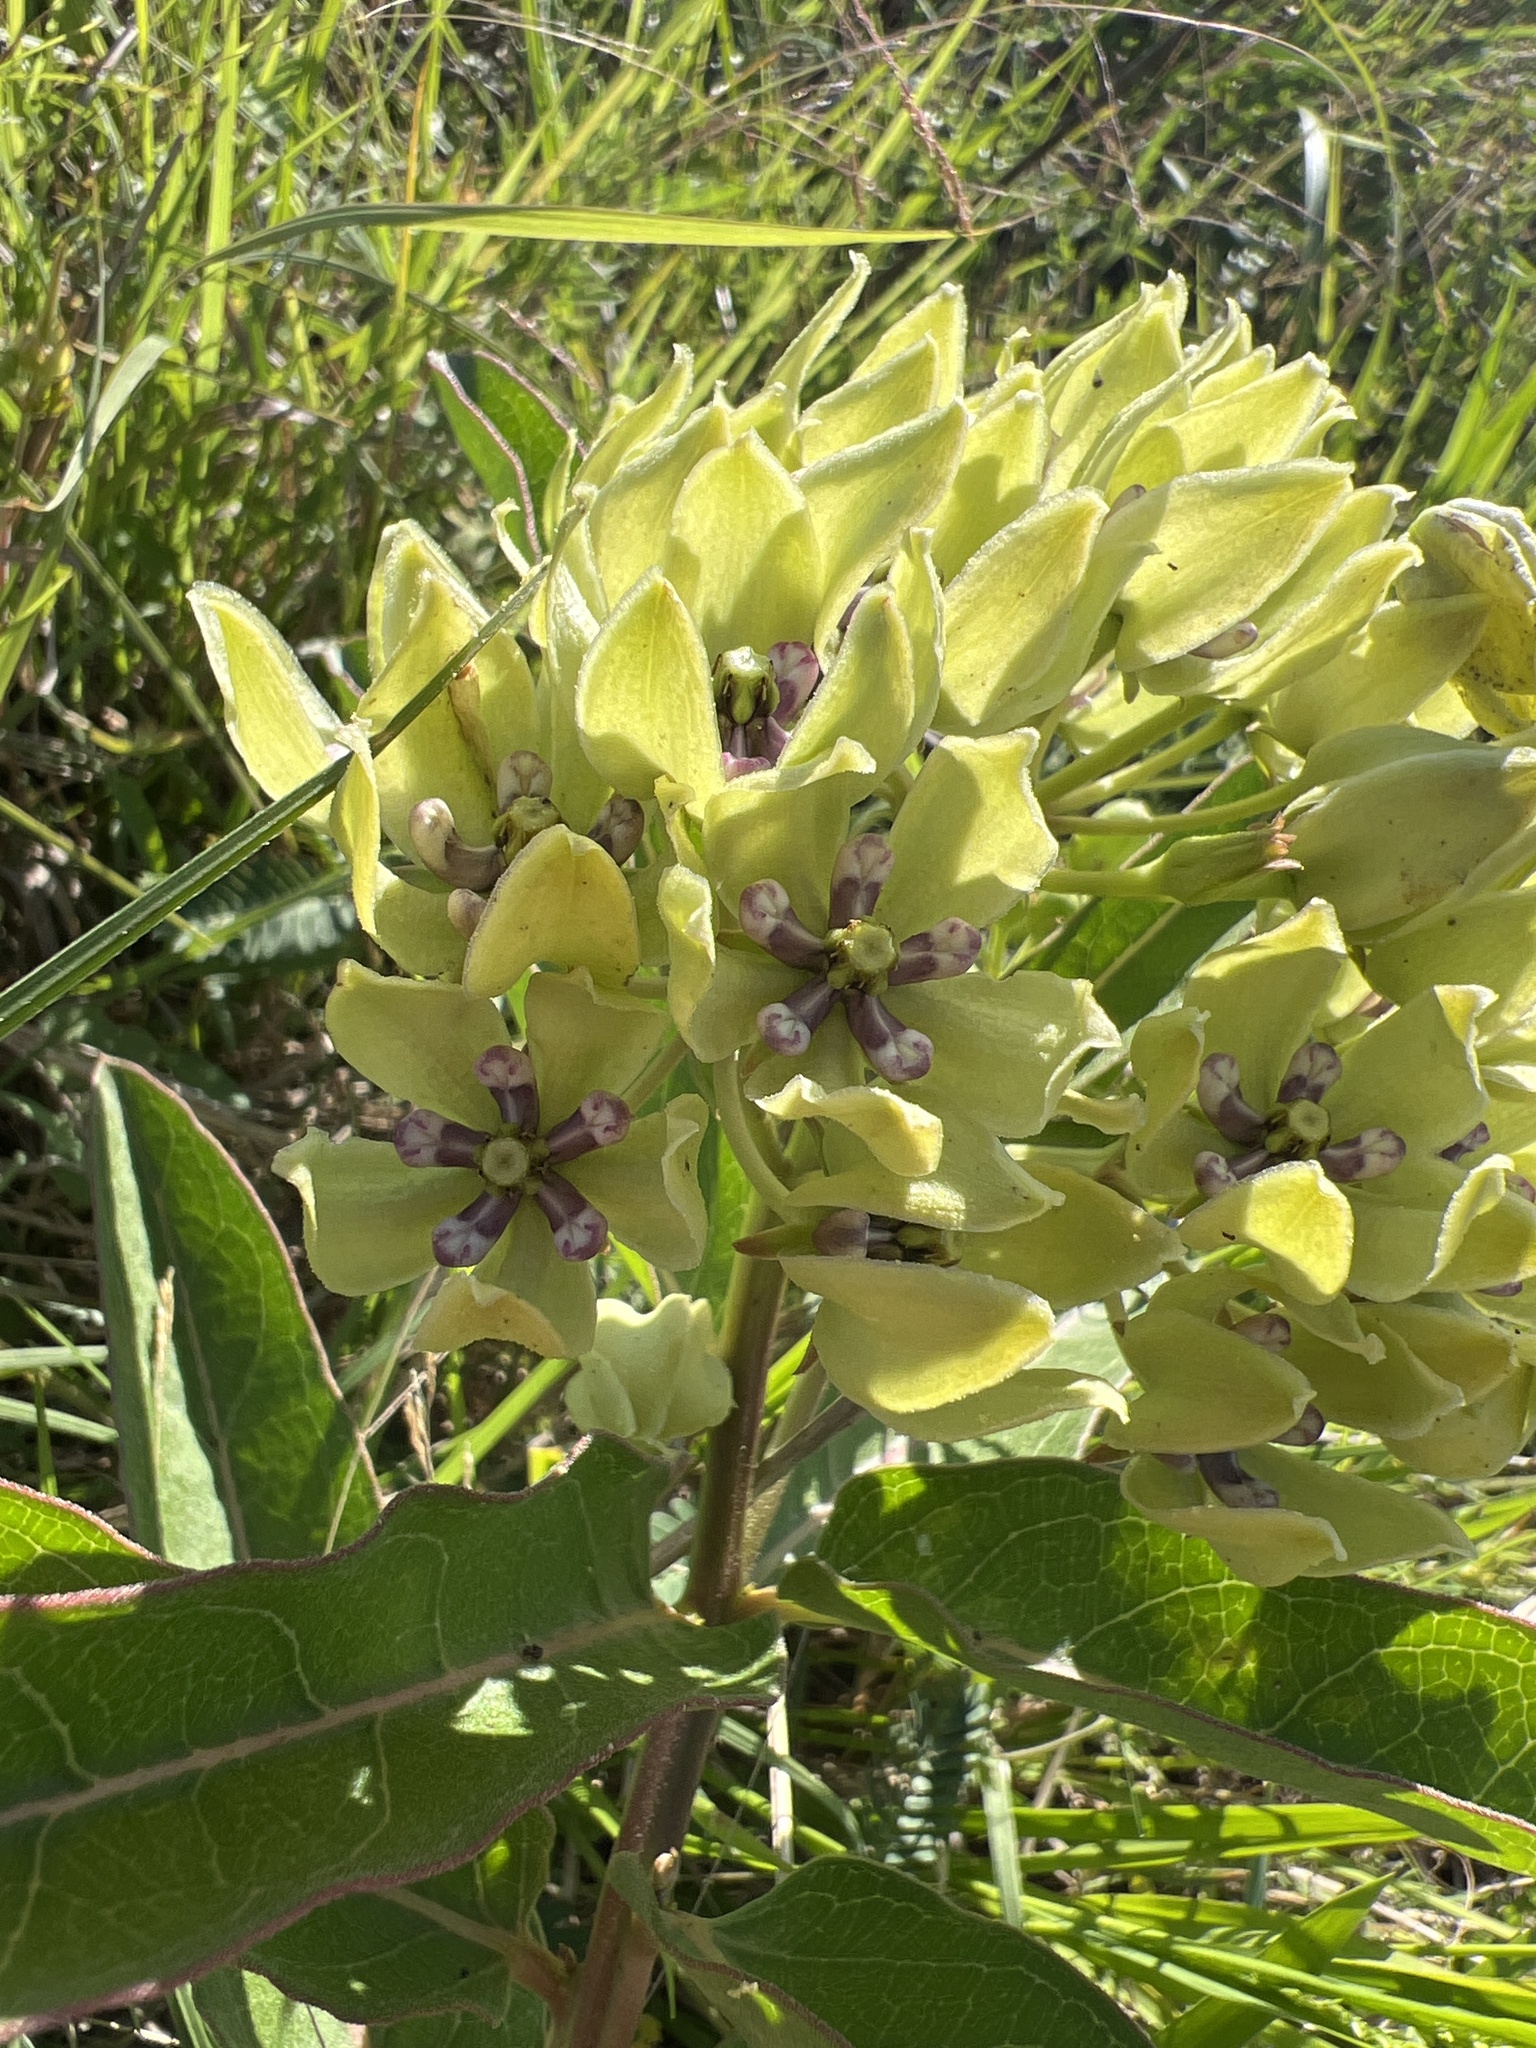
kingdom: Plantae
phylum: Tracheophyta
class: Magnoliopsida
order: Gentianales
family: Apocynaceae
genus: Asclepias
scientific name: Asclepias viridis
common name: Antelope-horns
